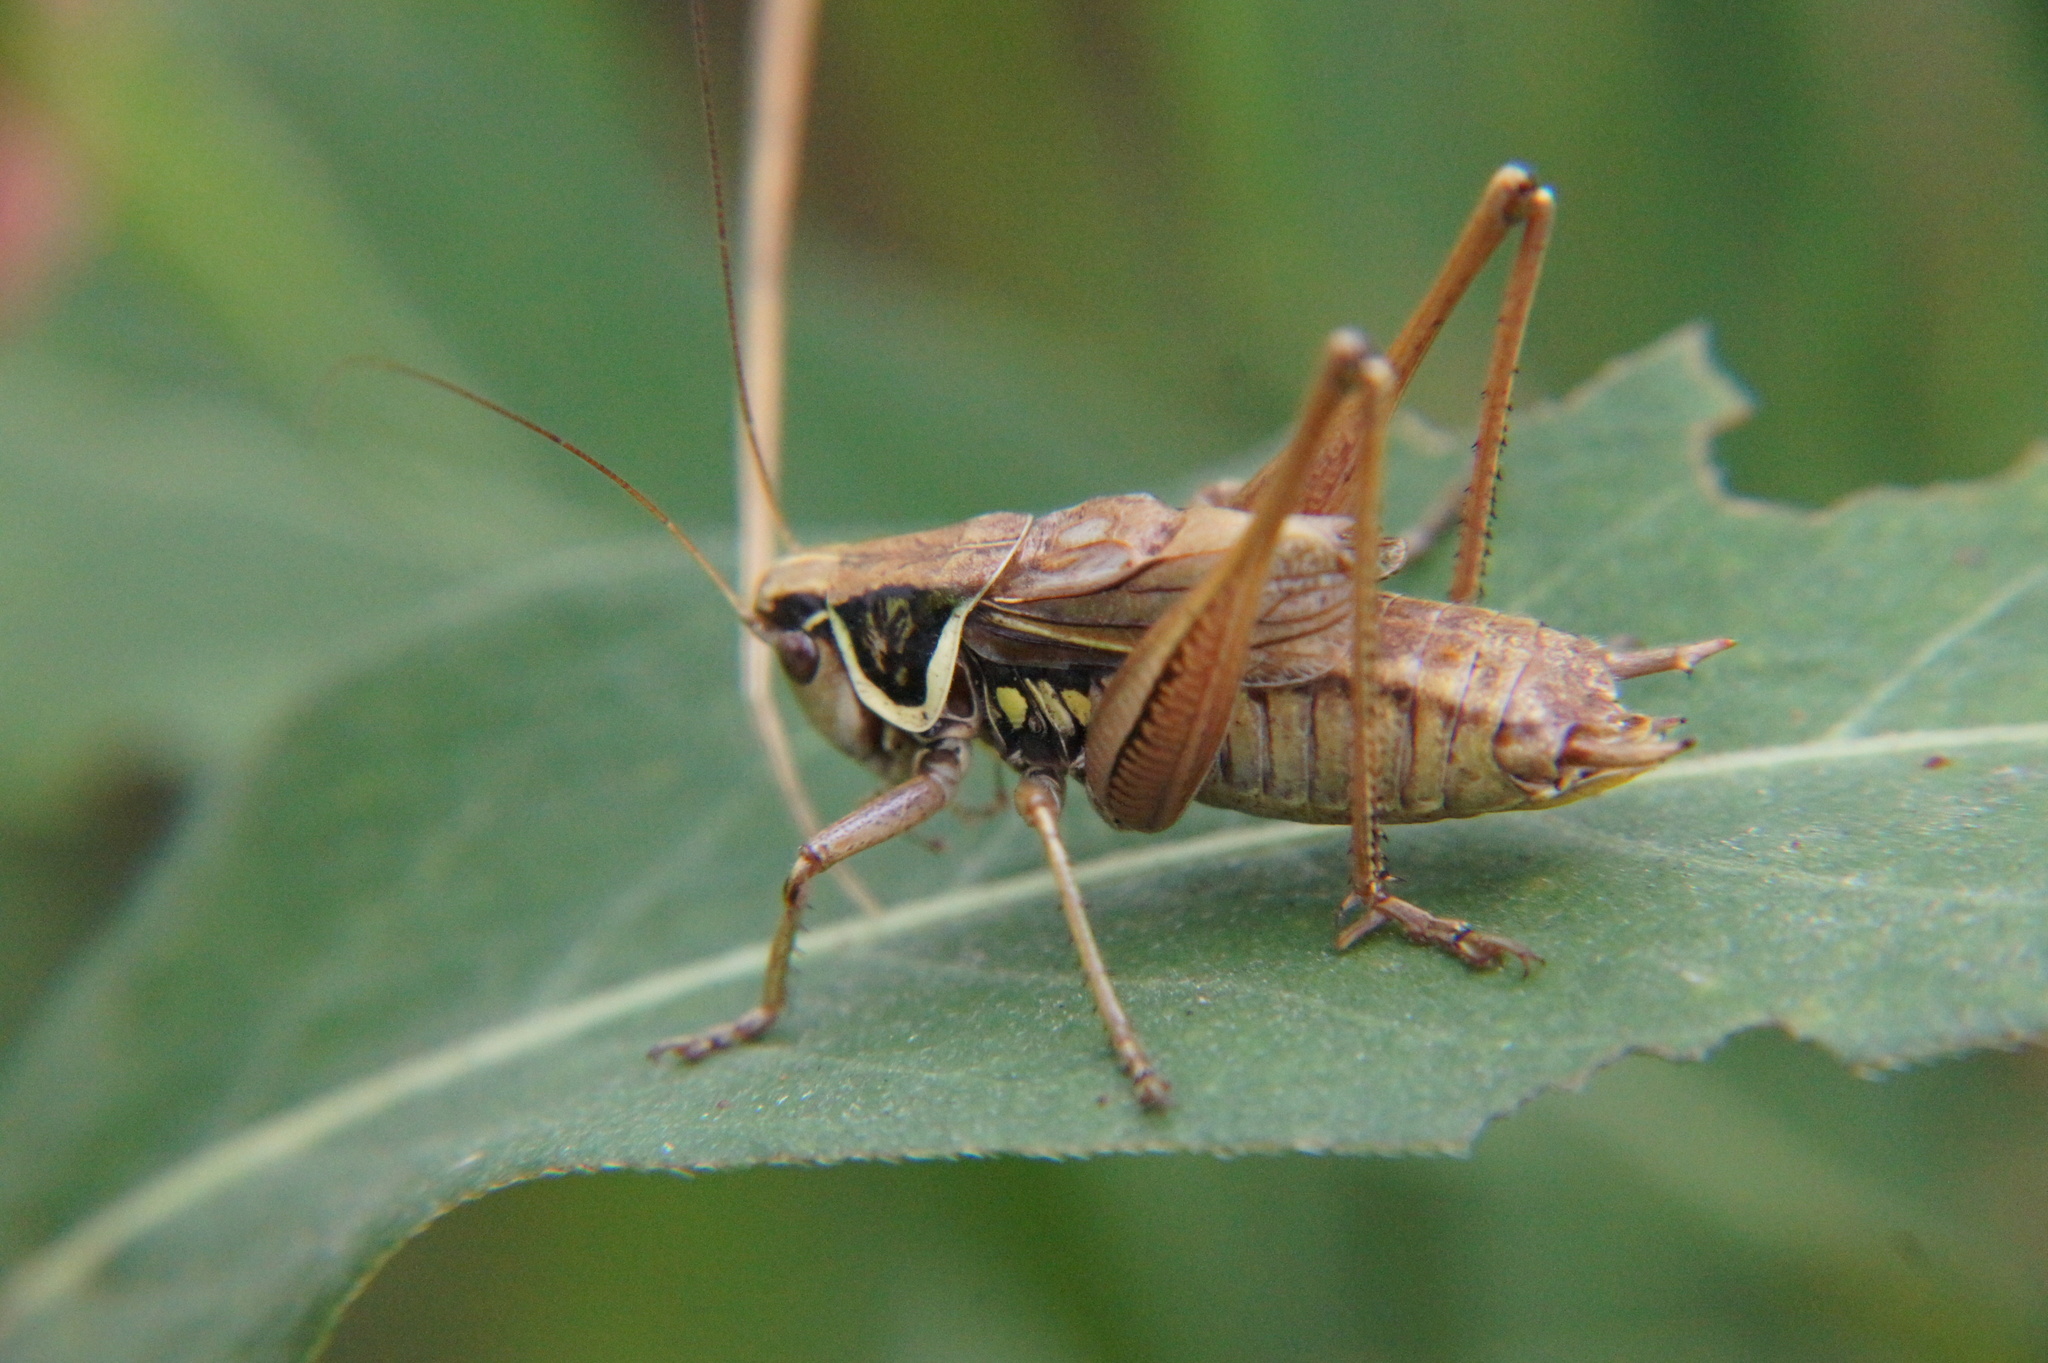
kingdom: Animalia
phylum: Arthropoda
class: Insecta
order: Orthoptera
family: Tettigoniidae
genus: Roeseliana
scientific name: Roeseliana roeselii
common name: Roesel's bush cricket
